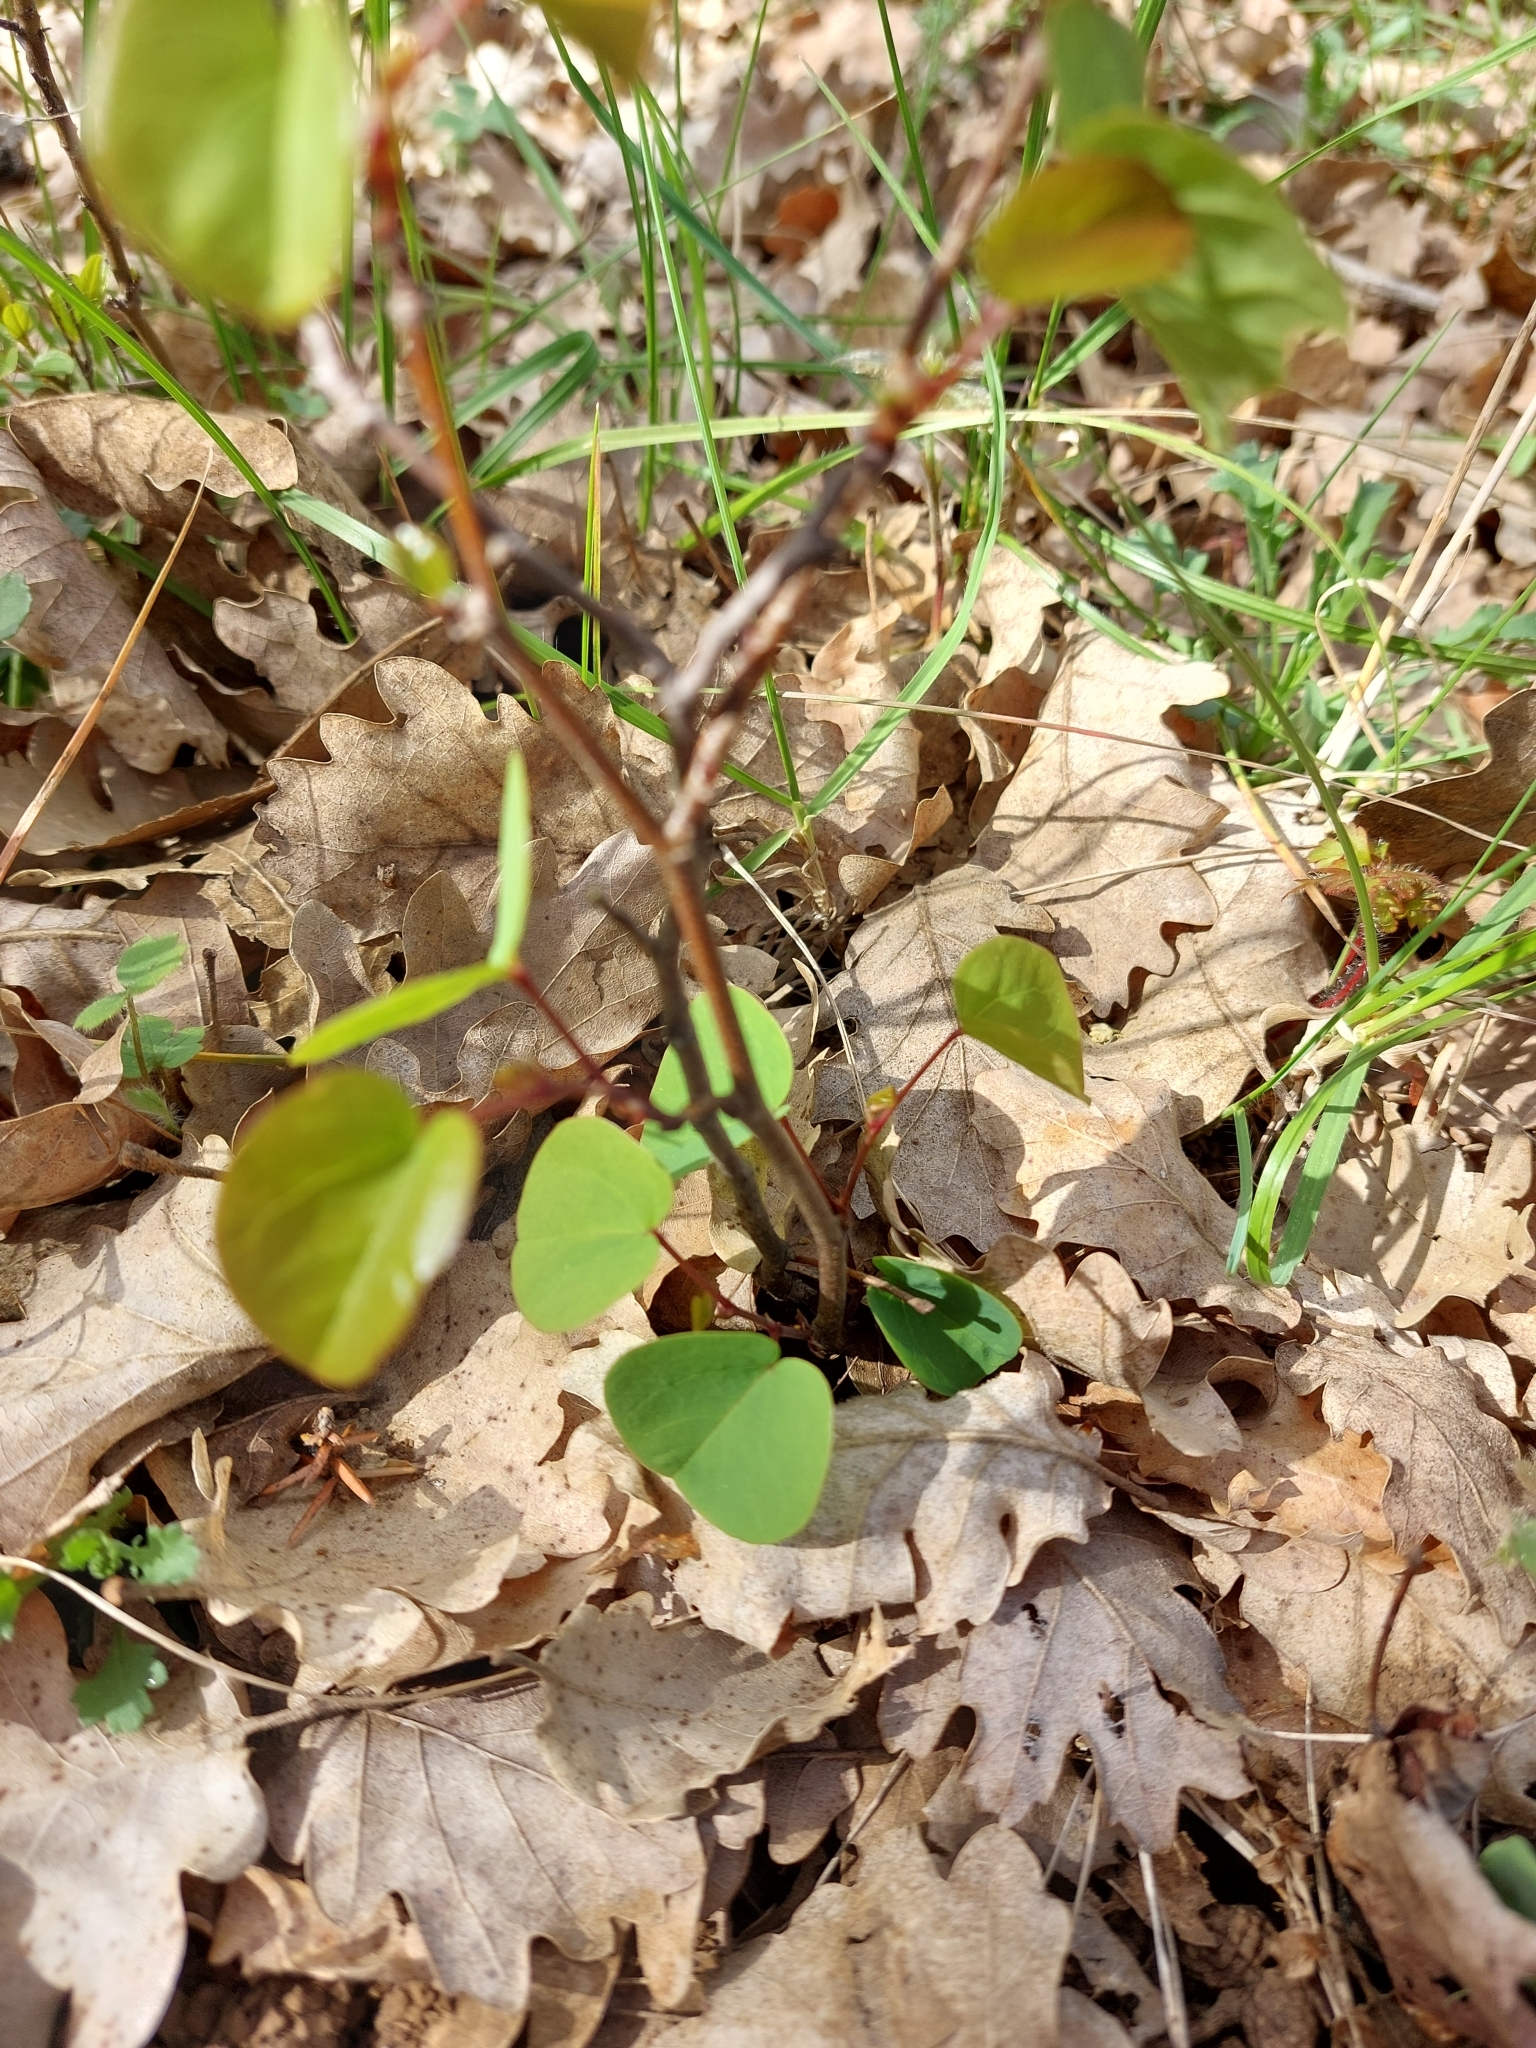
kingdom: Plantae
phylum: Tracheophyta
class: Magnoliopsida
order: Fabales
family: Fabaceae
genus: Cercis
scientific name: Cercis siliquastrum
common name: Judas tree
